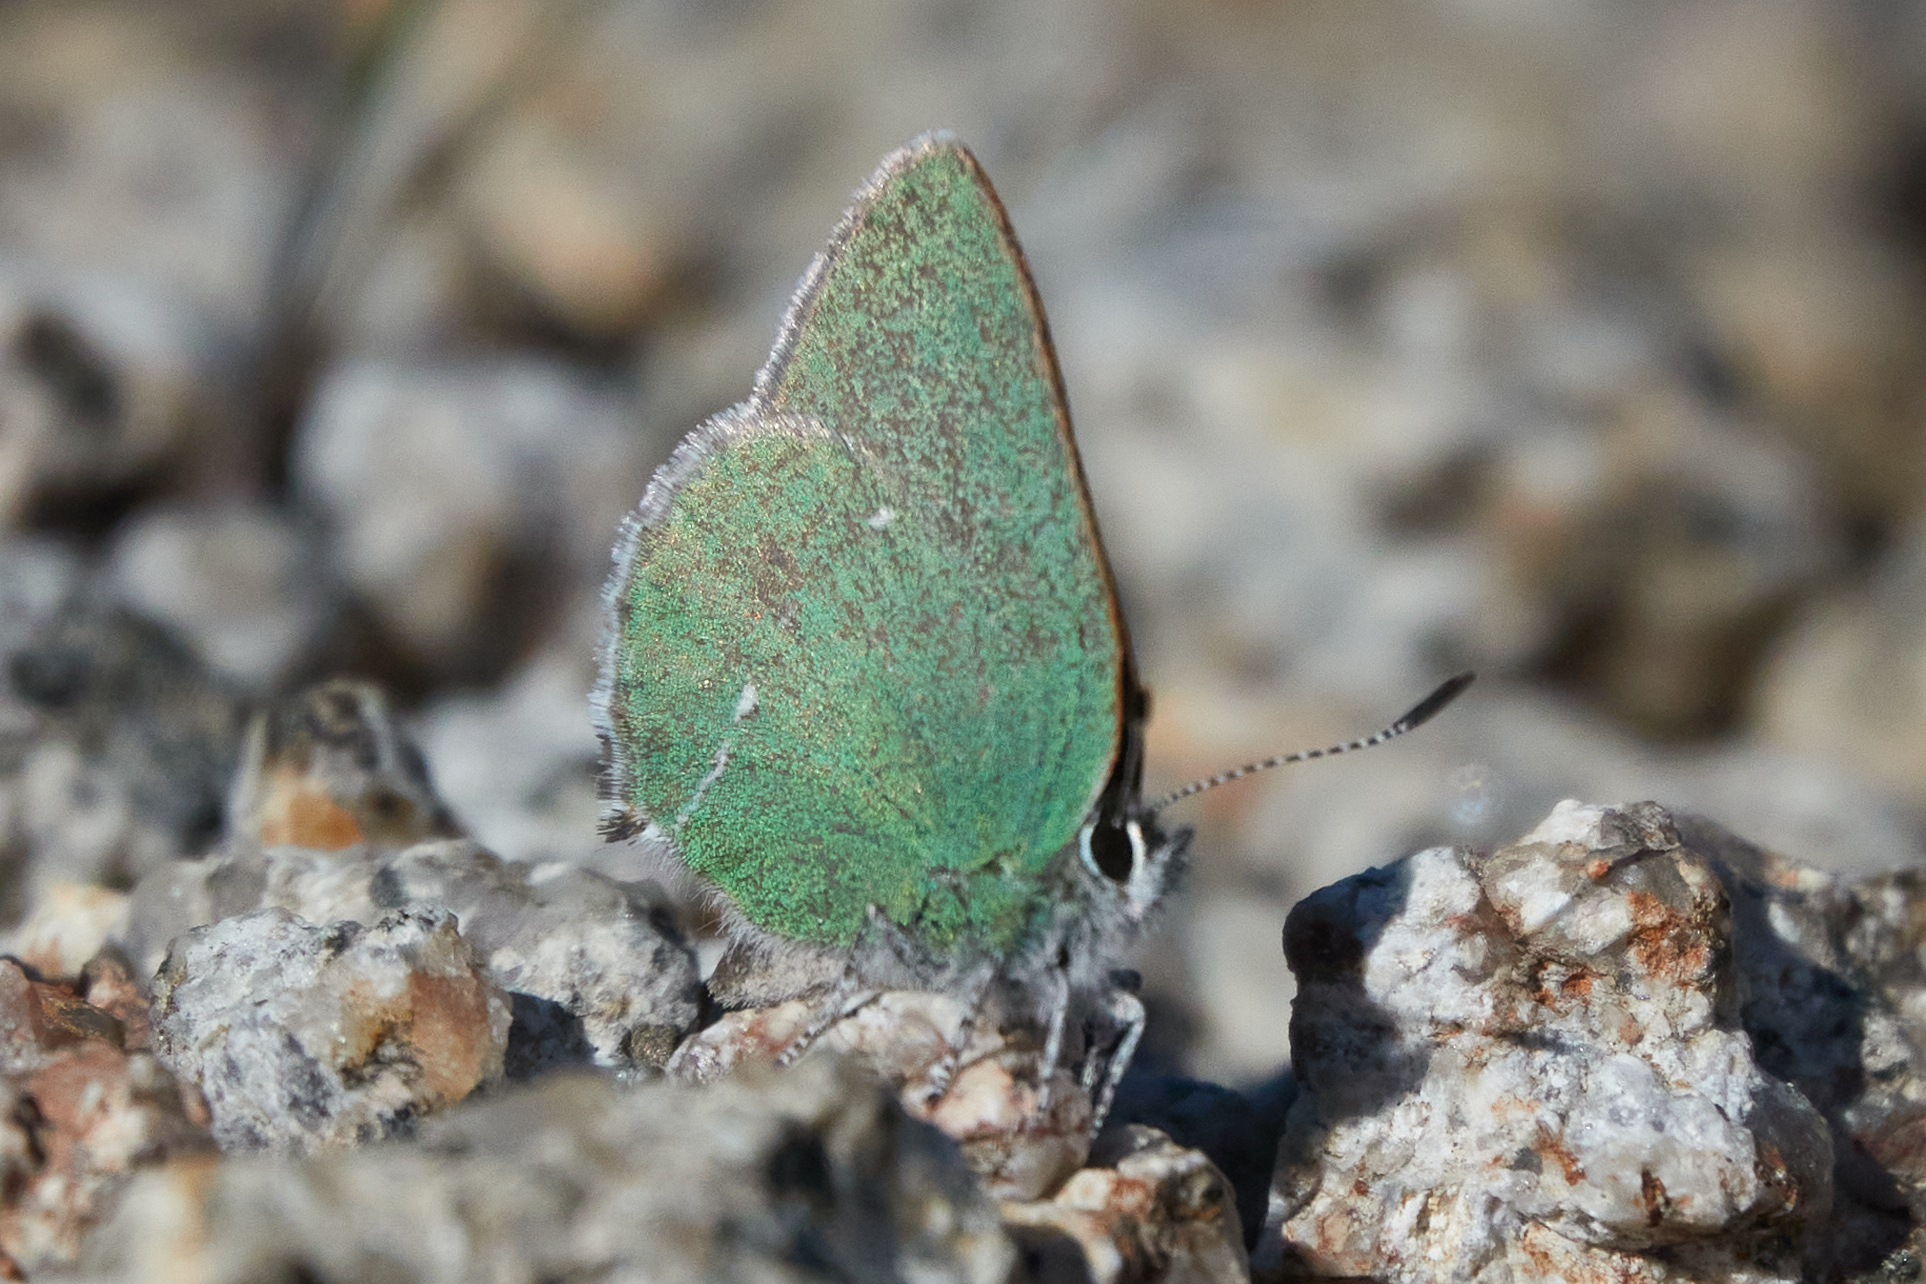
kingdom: Animalia
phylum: Arthropoda
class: Insecta
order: Lepidoptera
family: Lycaenidae
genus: Thecla
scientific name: Thecla sheridanii
